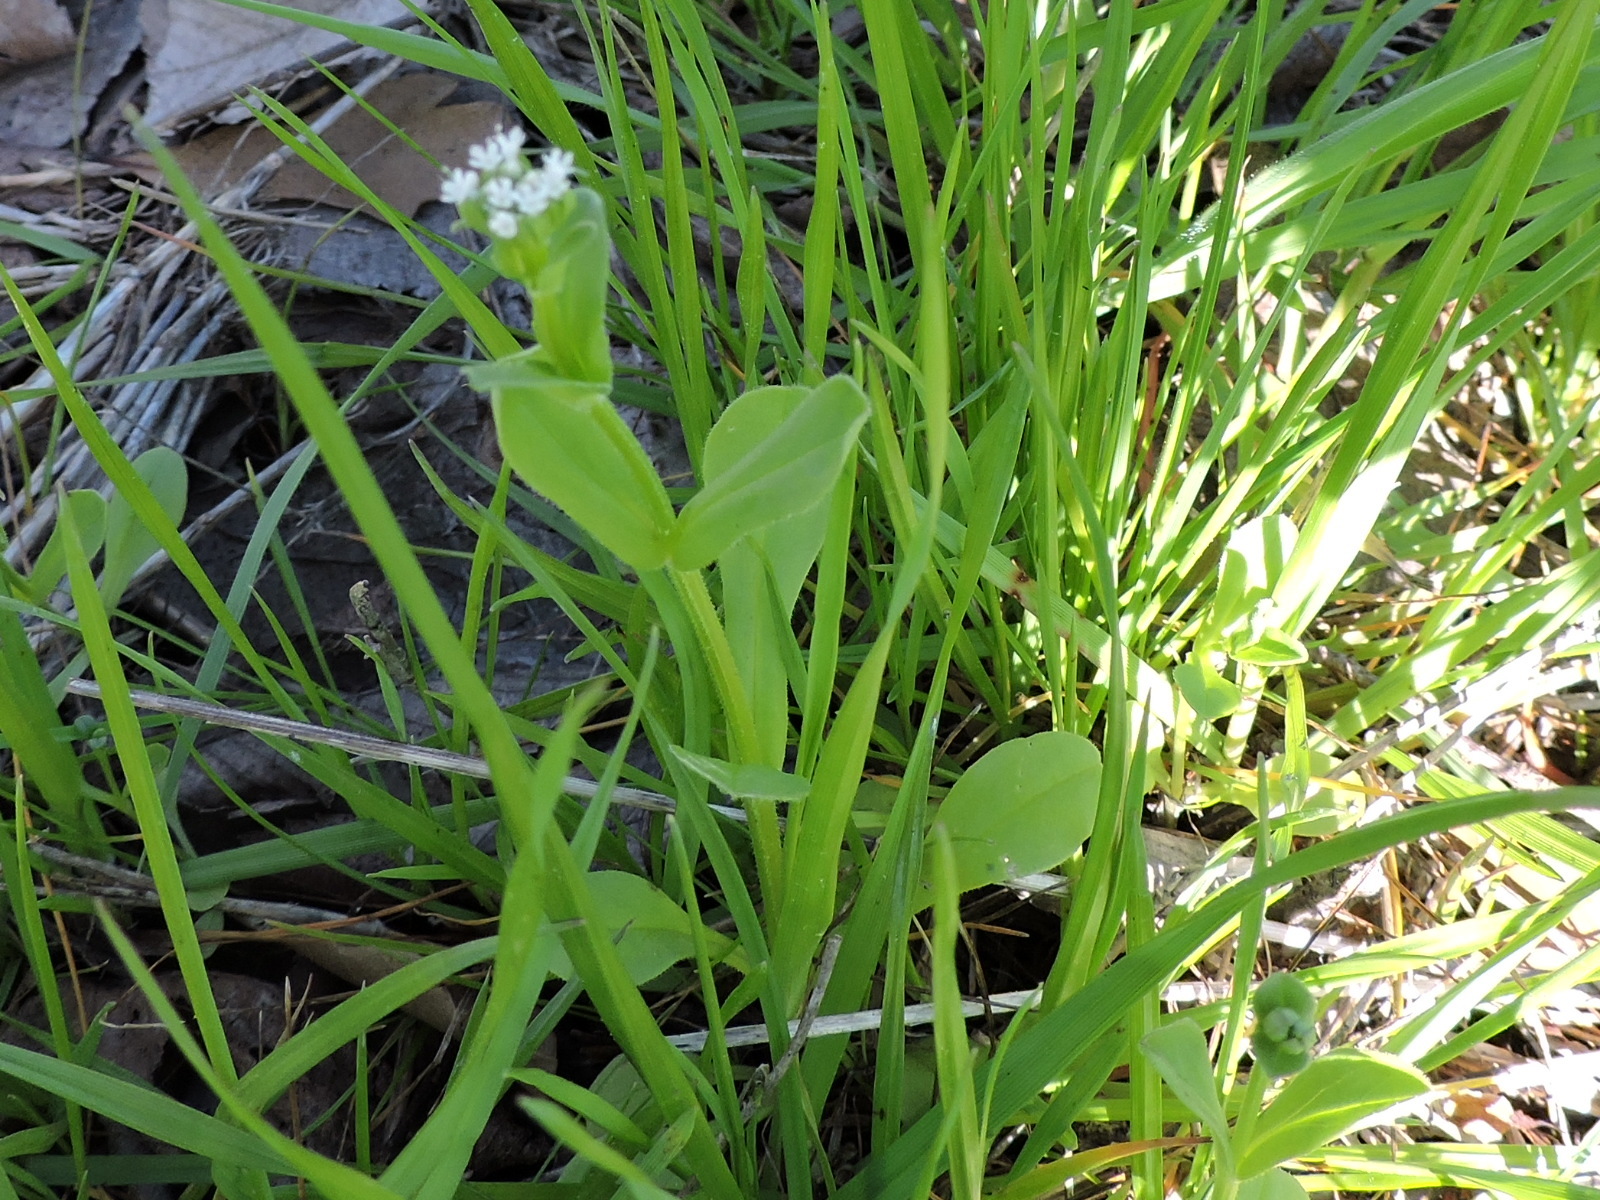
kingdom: Plantae
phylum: Tracheophyta
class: Magnoliopsida
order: Dipsacales
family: Caprifoliaceae
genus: Valerianella
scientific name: Valerianella radiata
